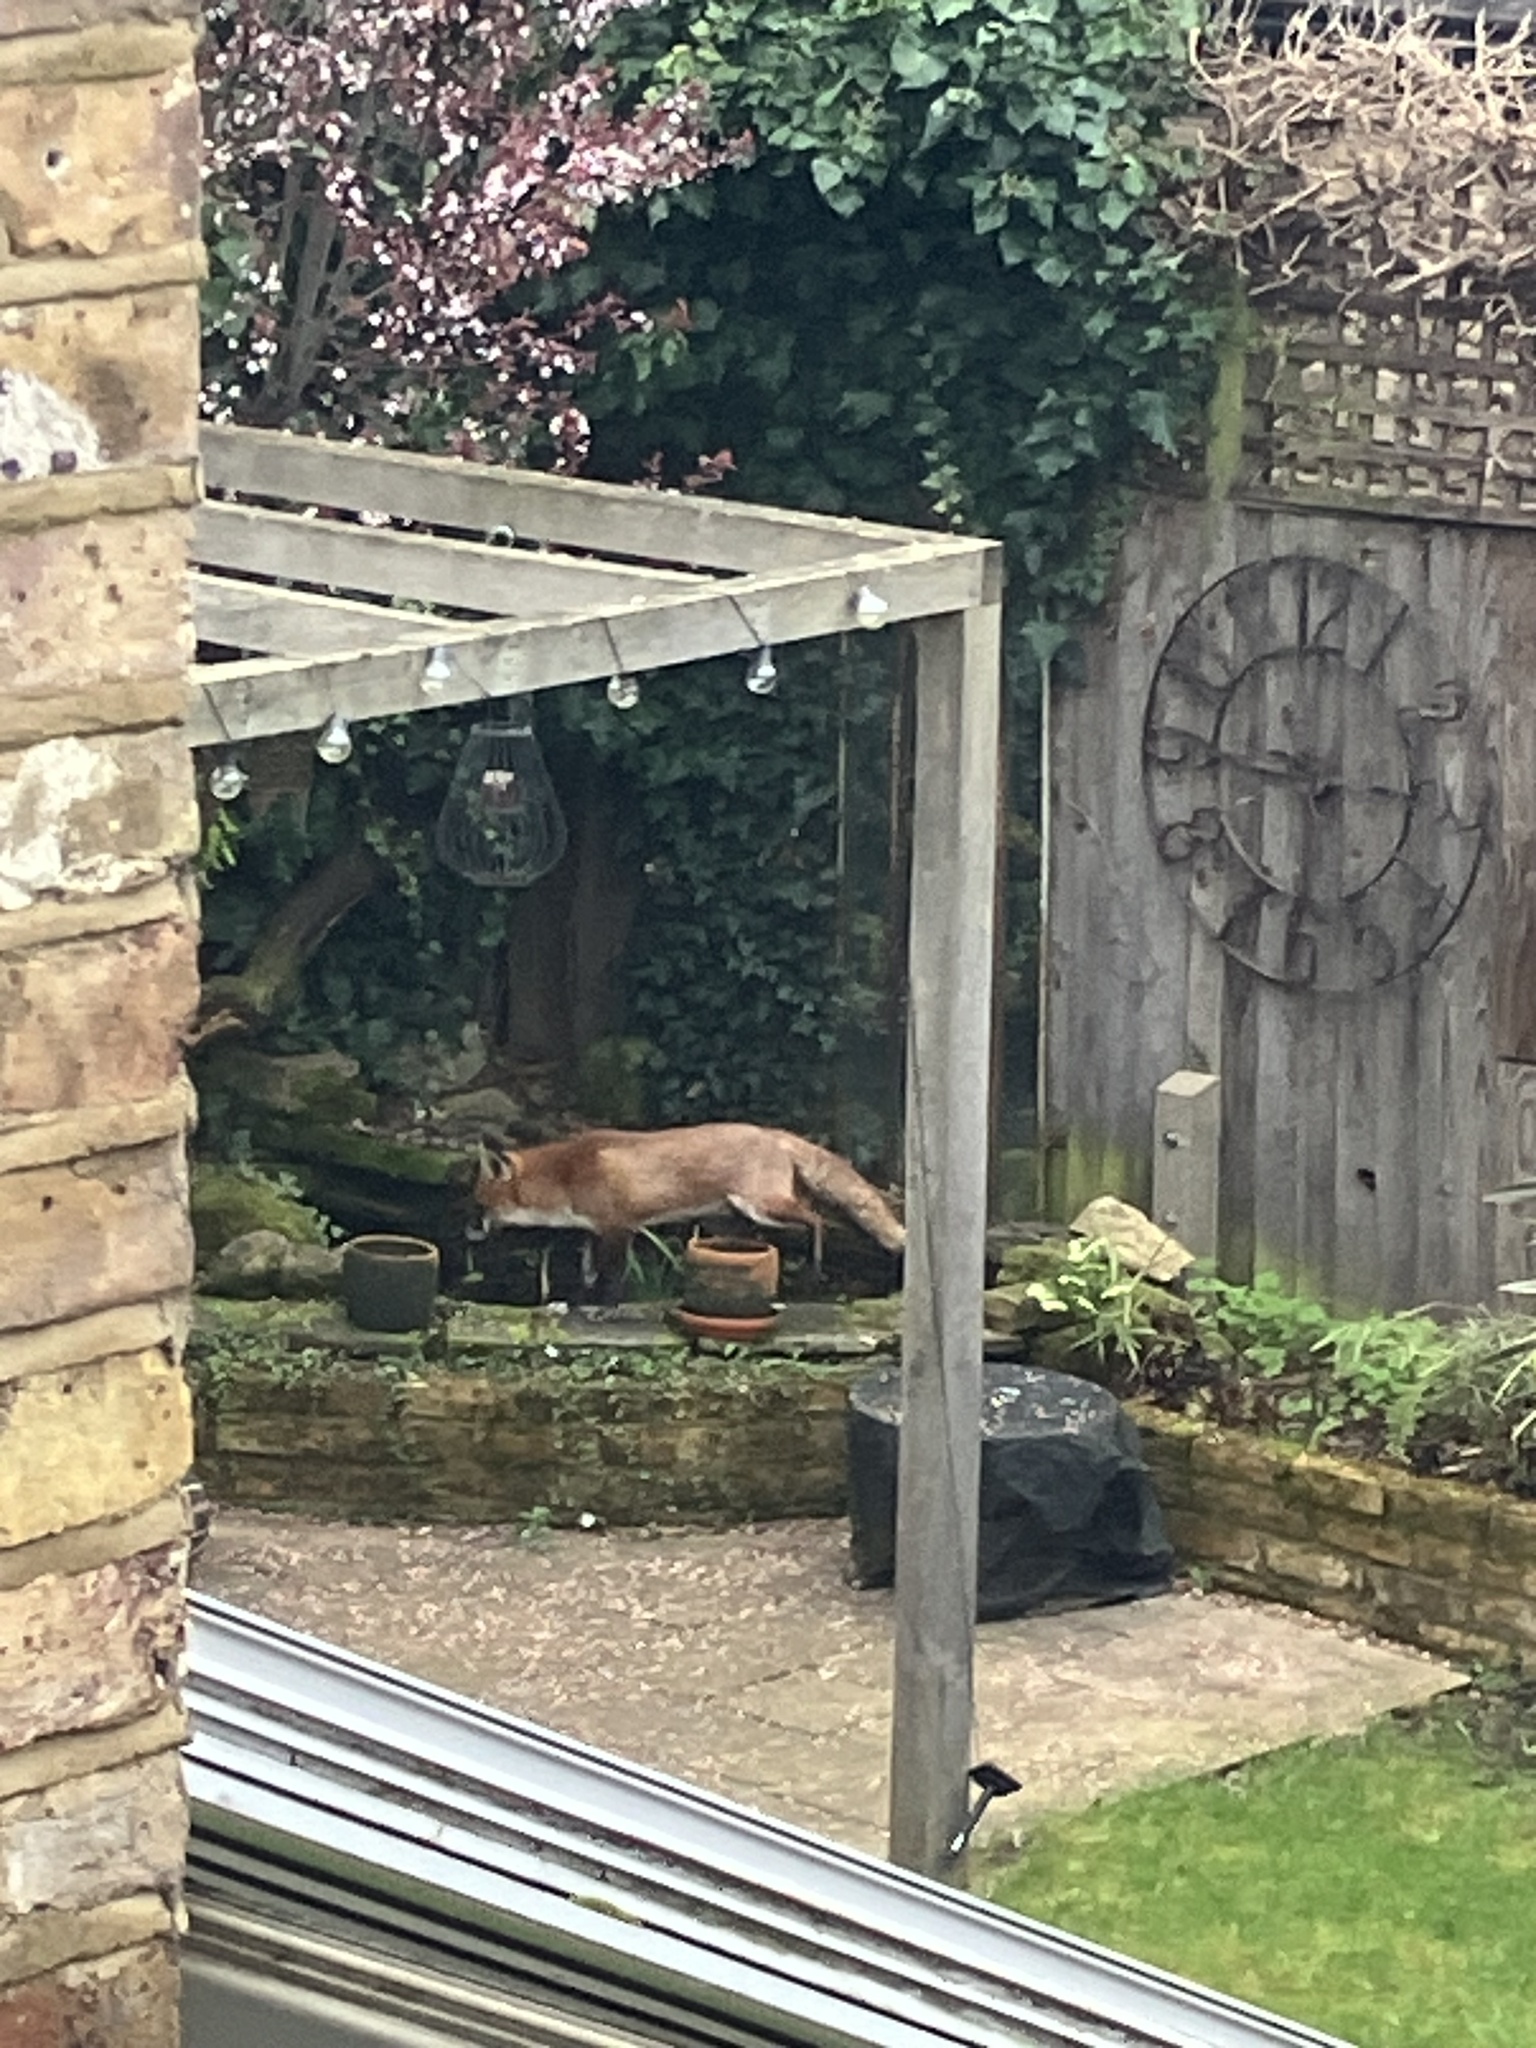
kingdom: Animalia
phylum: Chordata
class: Mammalia
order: Carnivora
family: Canidae
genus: Vulpes
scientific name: Vulpes vulpes
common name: Red fox
